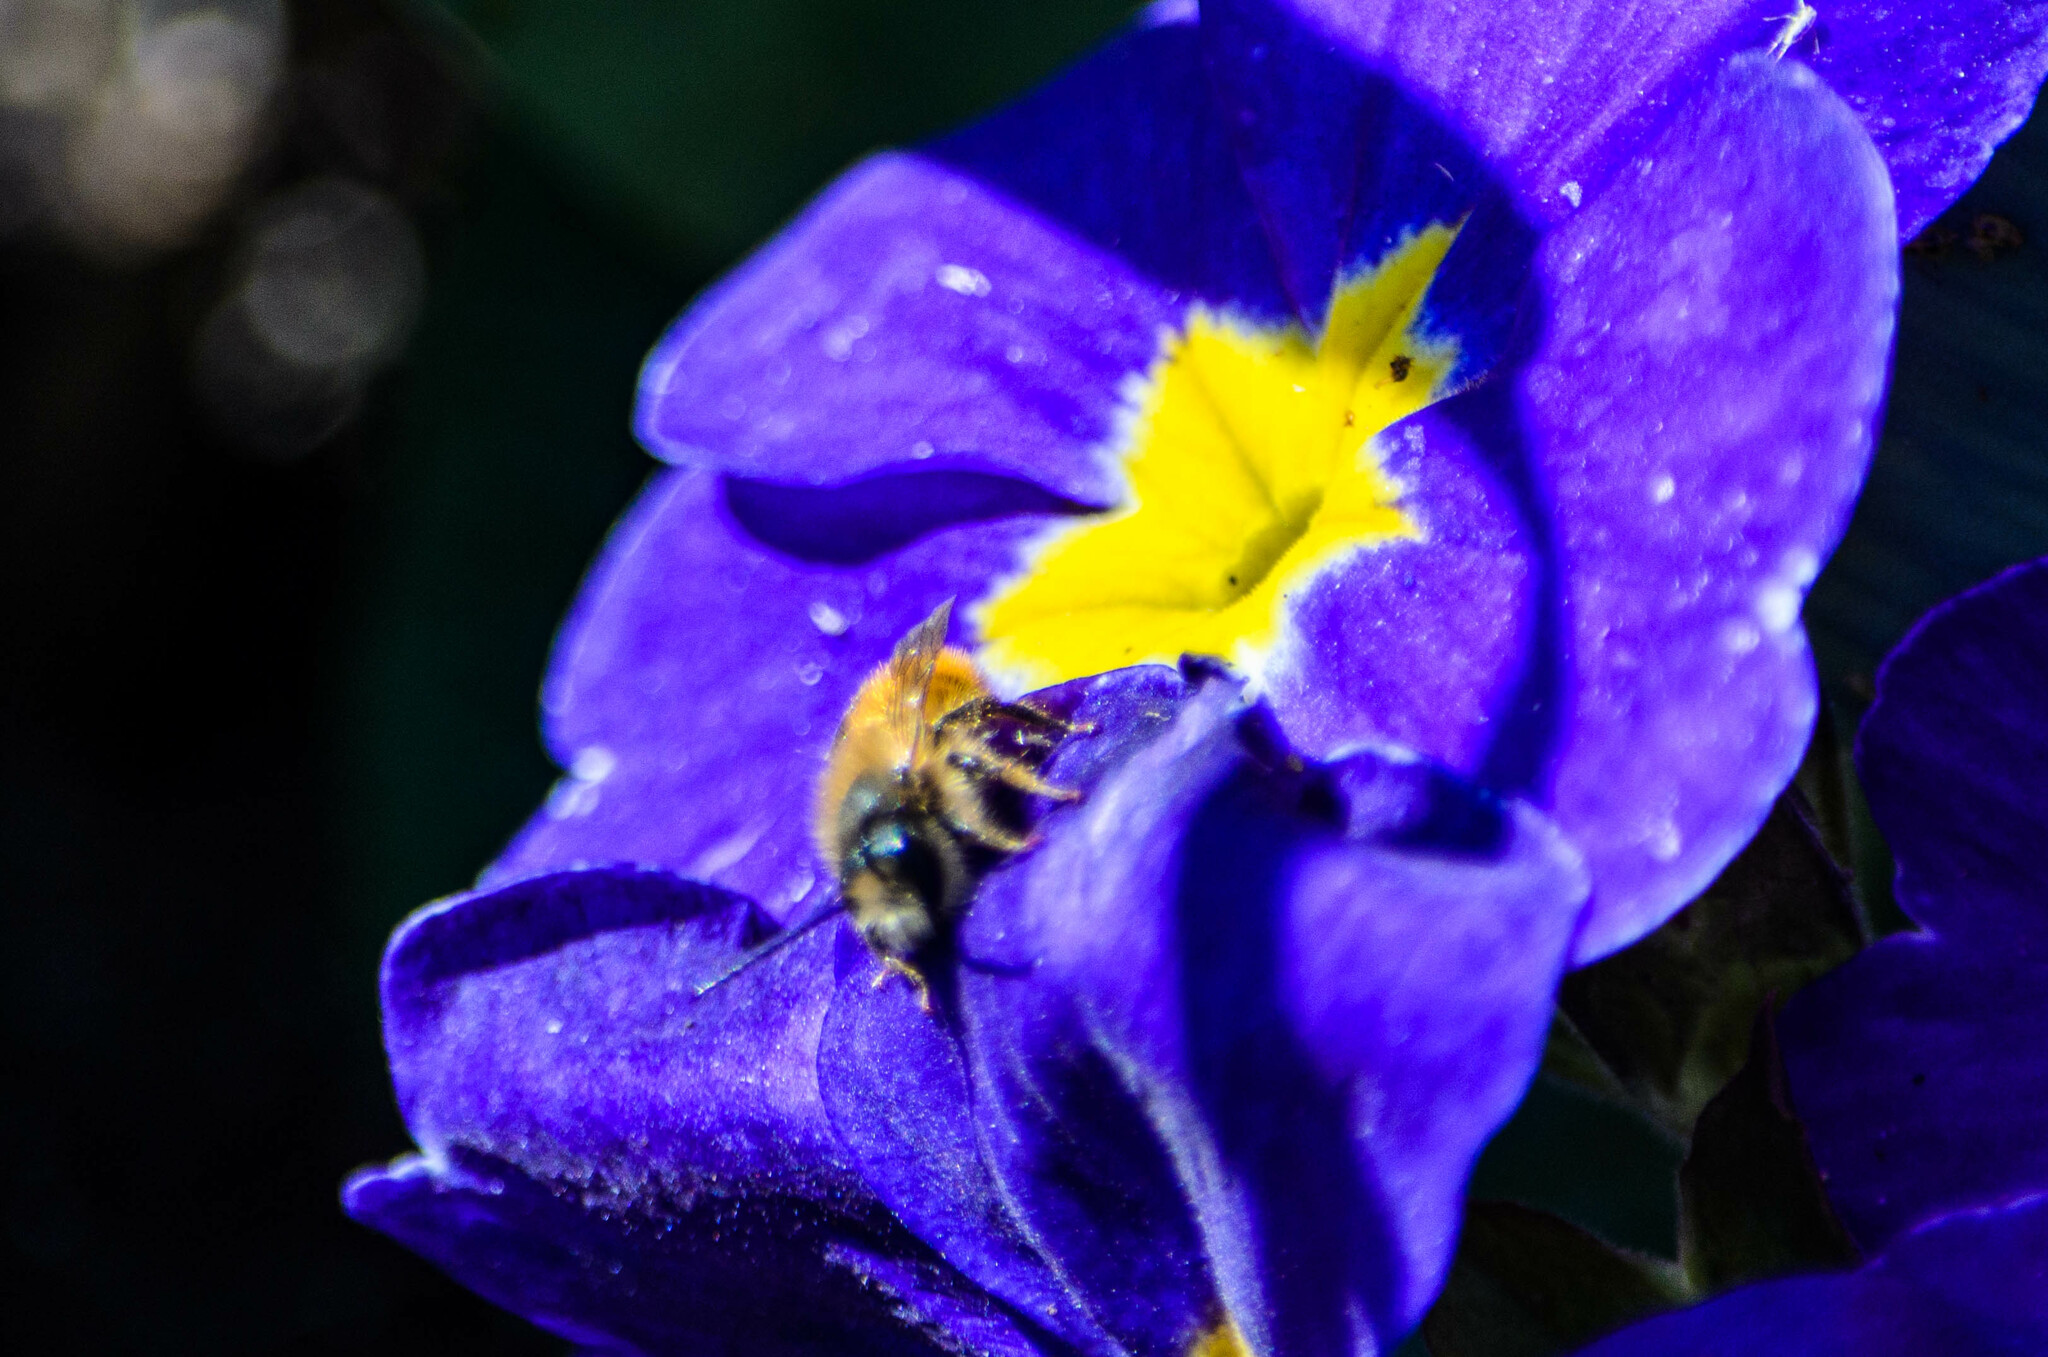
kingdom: Animalia
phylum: Arthropoda
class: Insecta
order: Hymenoptera
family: Megachilidae
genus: Osmia
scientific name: Osmia bicornis
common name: Red mason bee
